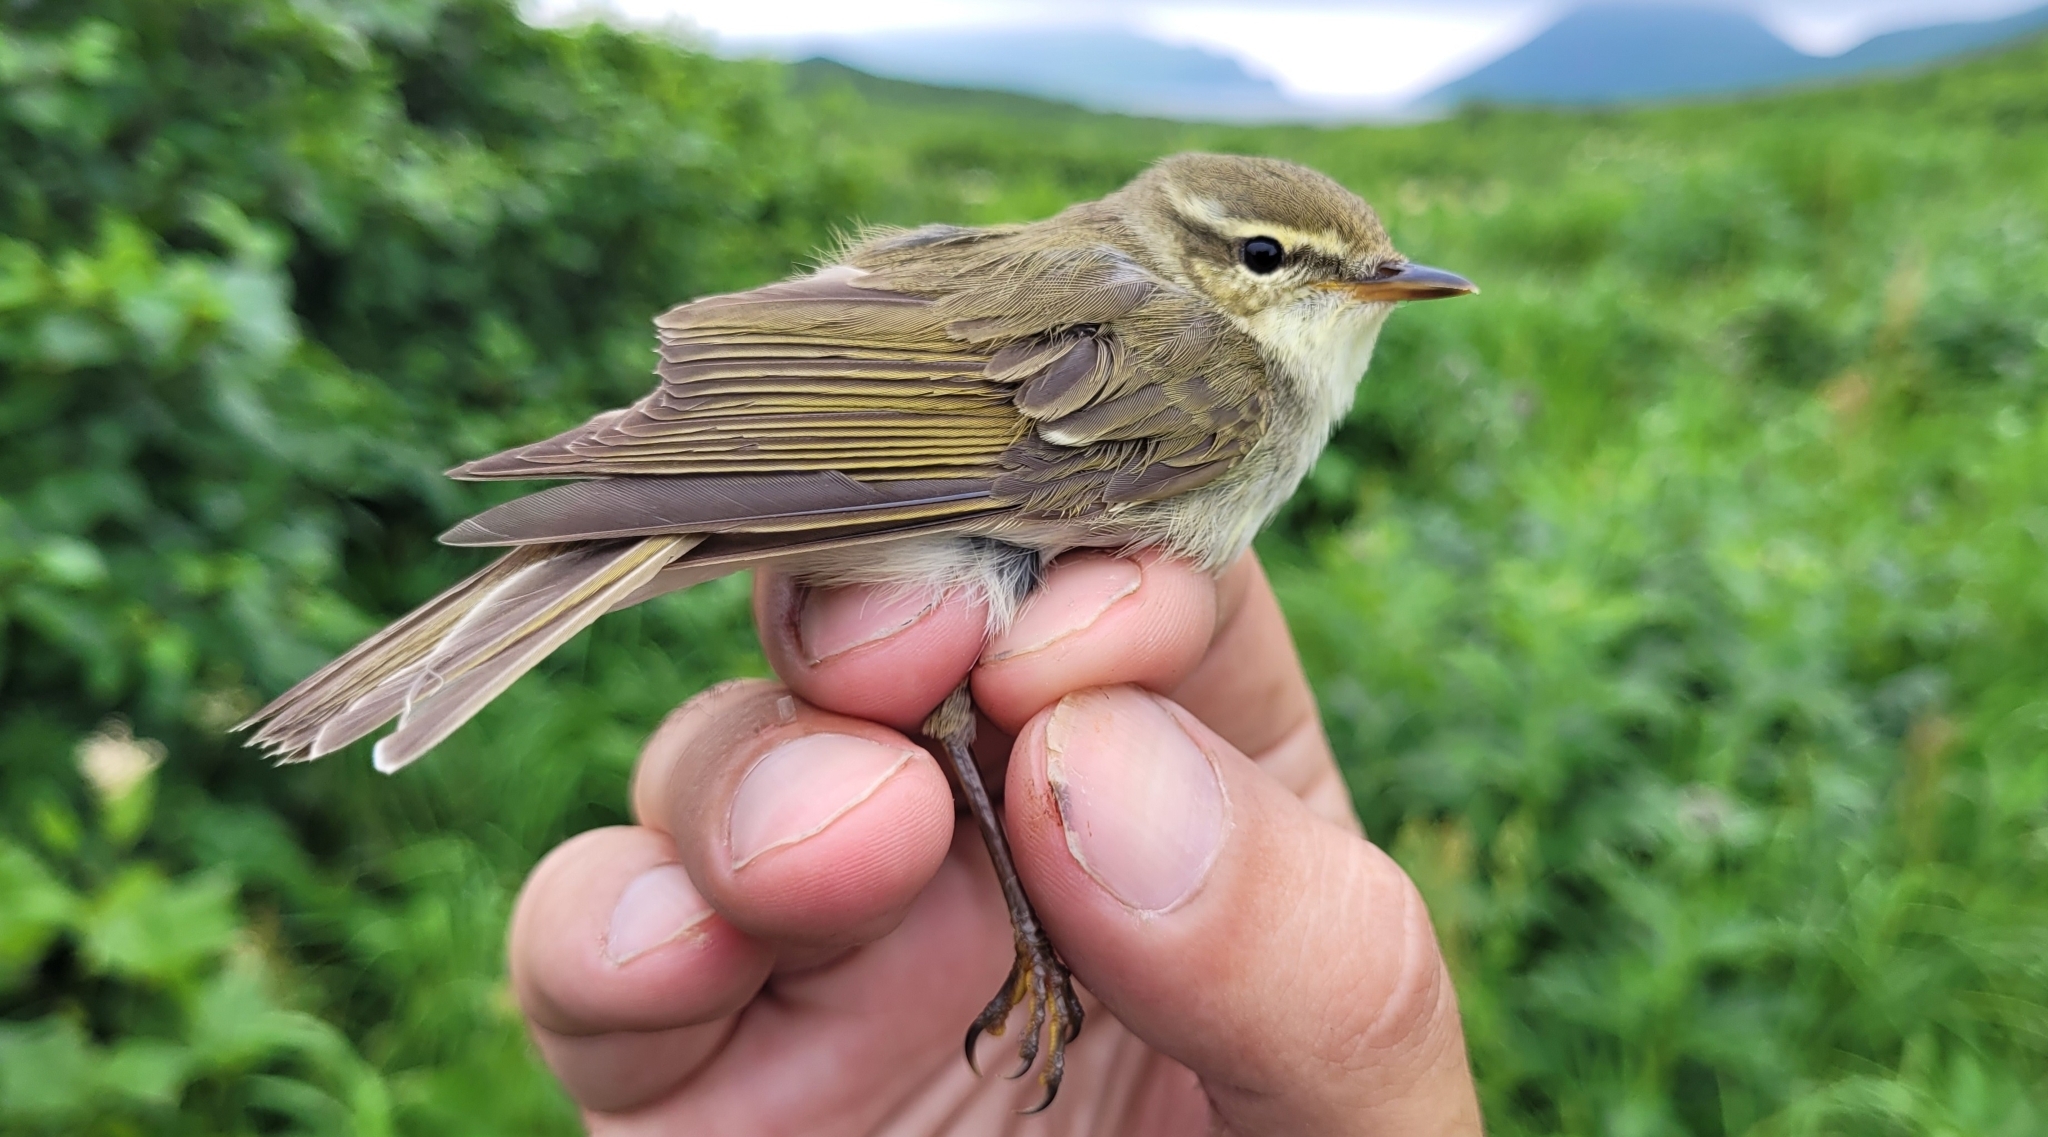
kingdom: Animalia
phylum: Chordata
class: Aves
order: Passeriformes
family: Phylloscopidae
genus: Phylloscopus
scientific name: Phylloscopus borealis
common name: Arctic warbler
